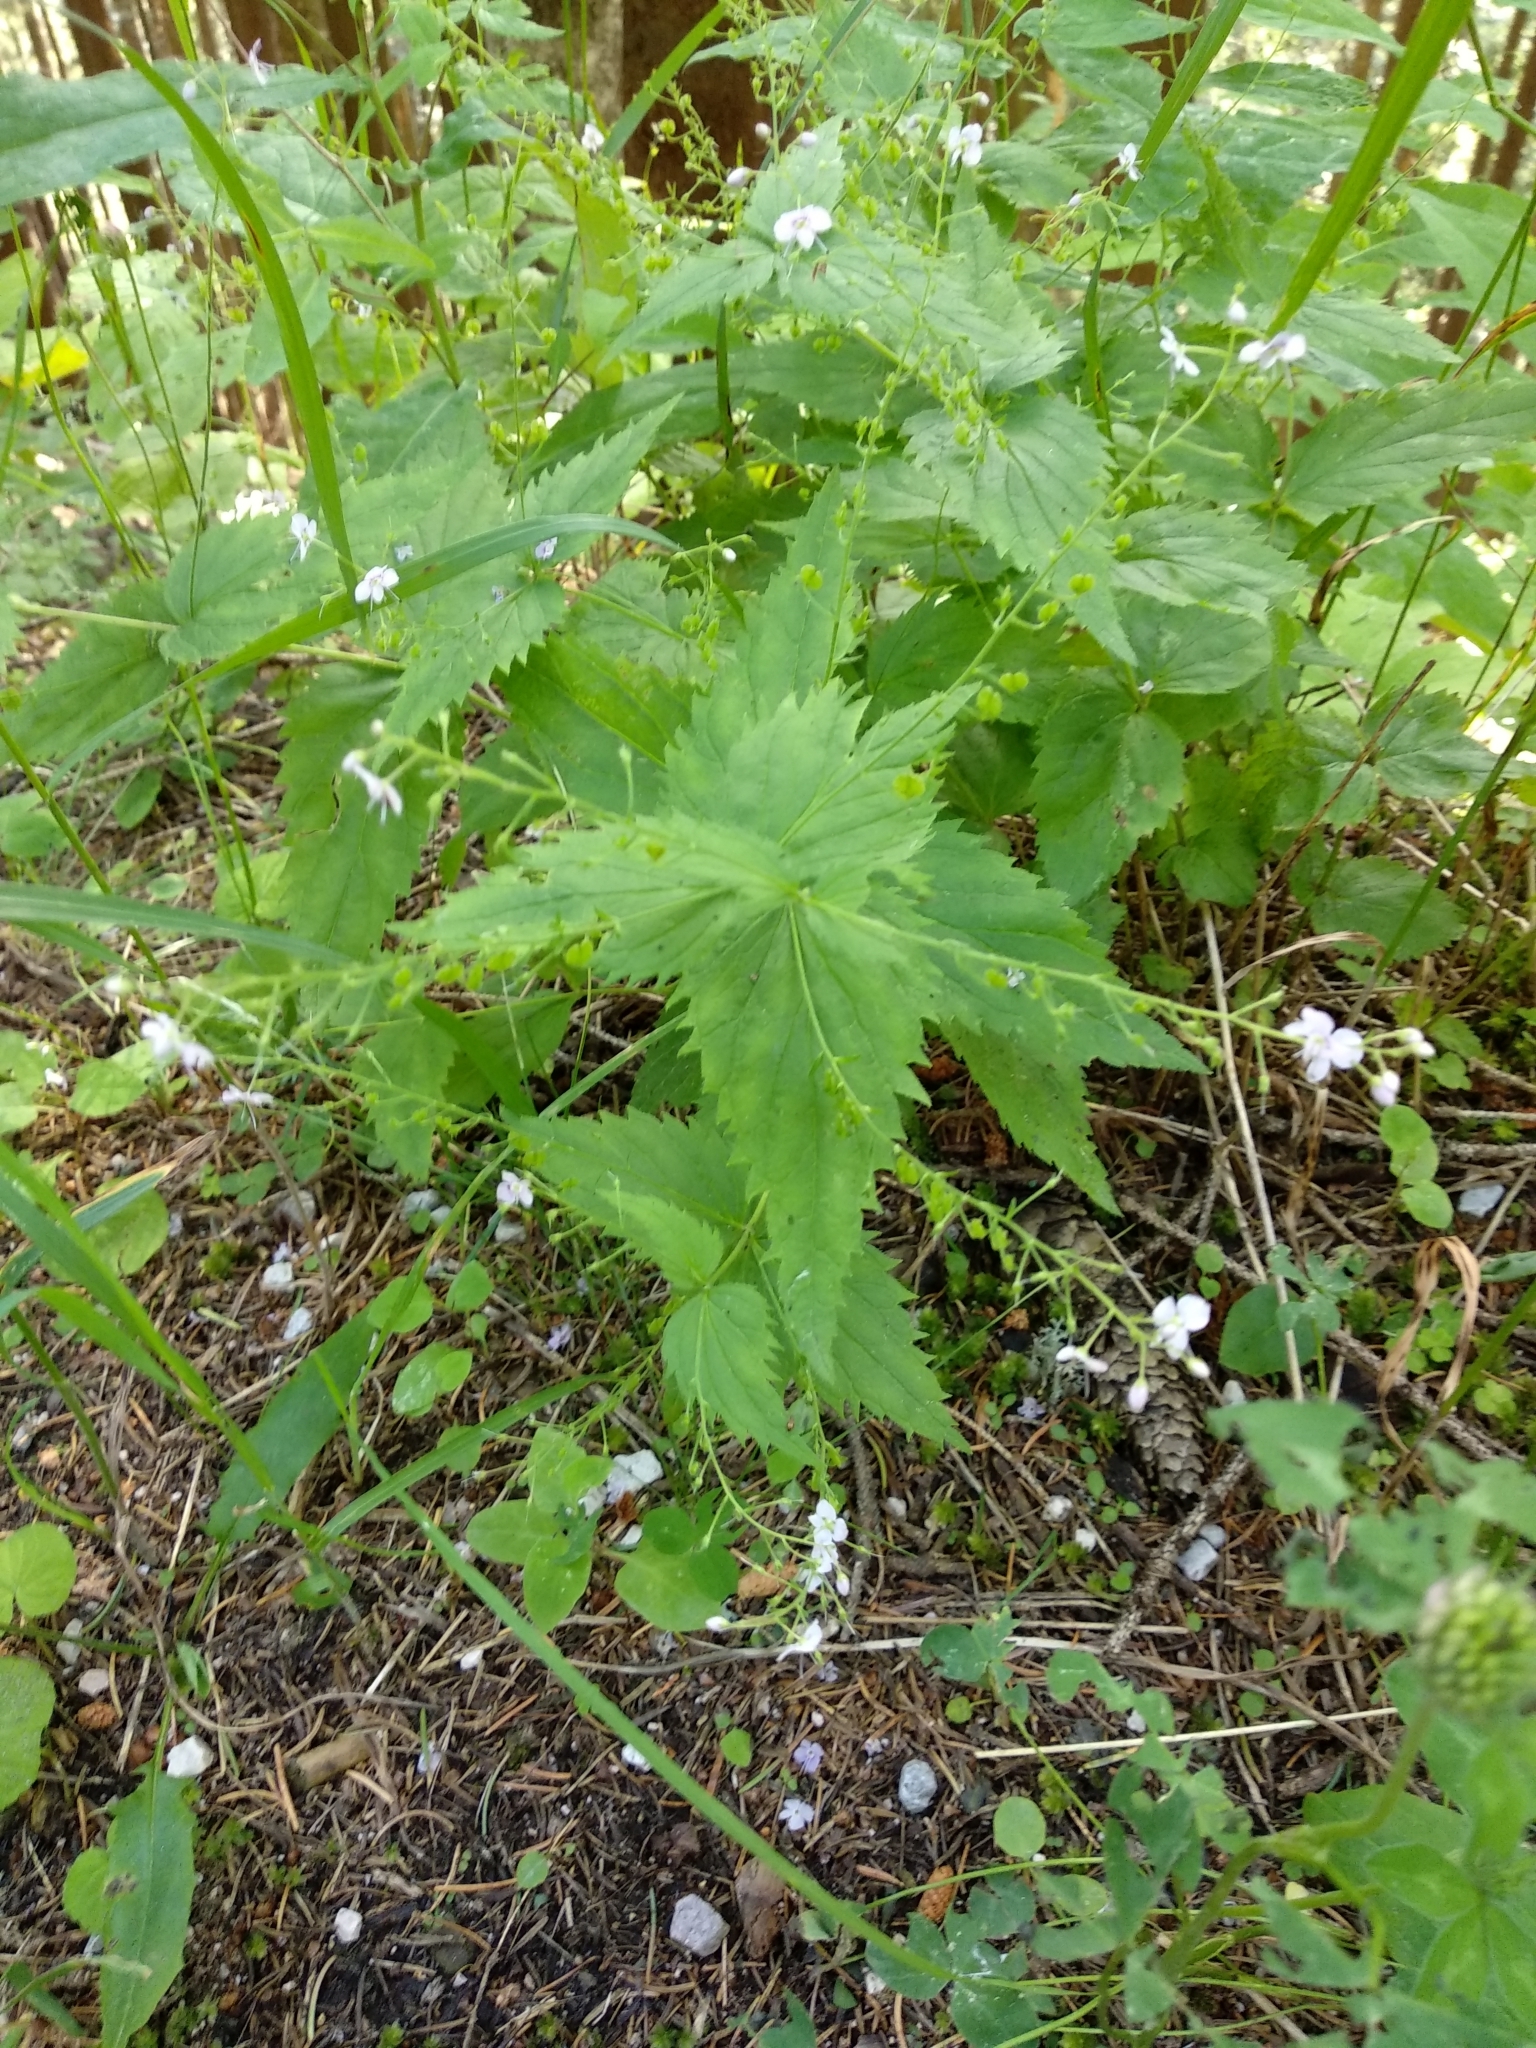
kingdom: Plantae
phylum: Tracheophyta
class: Magnoliopsida
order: Lamiales
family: Plantaginaceae
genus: Veronica
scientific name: Veronica urticifolia
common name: Nettle-leaf speedwell
